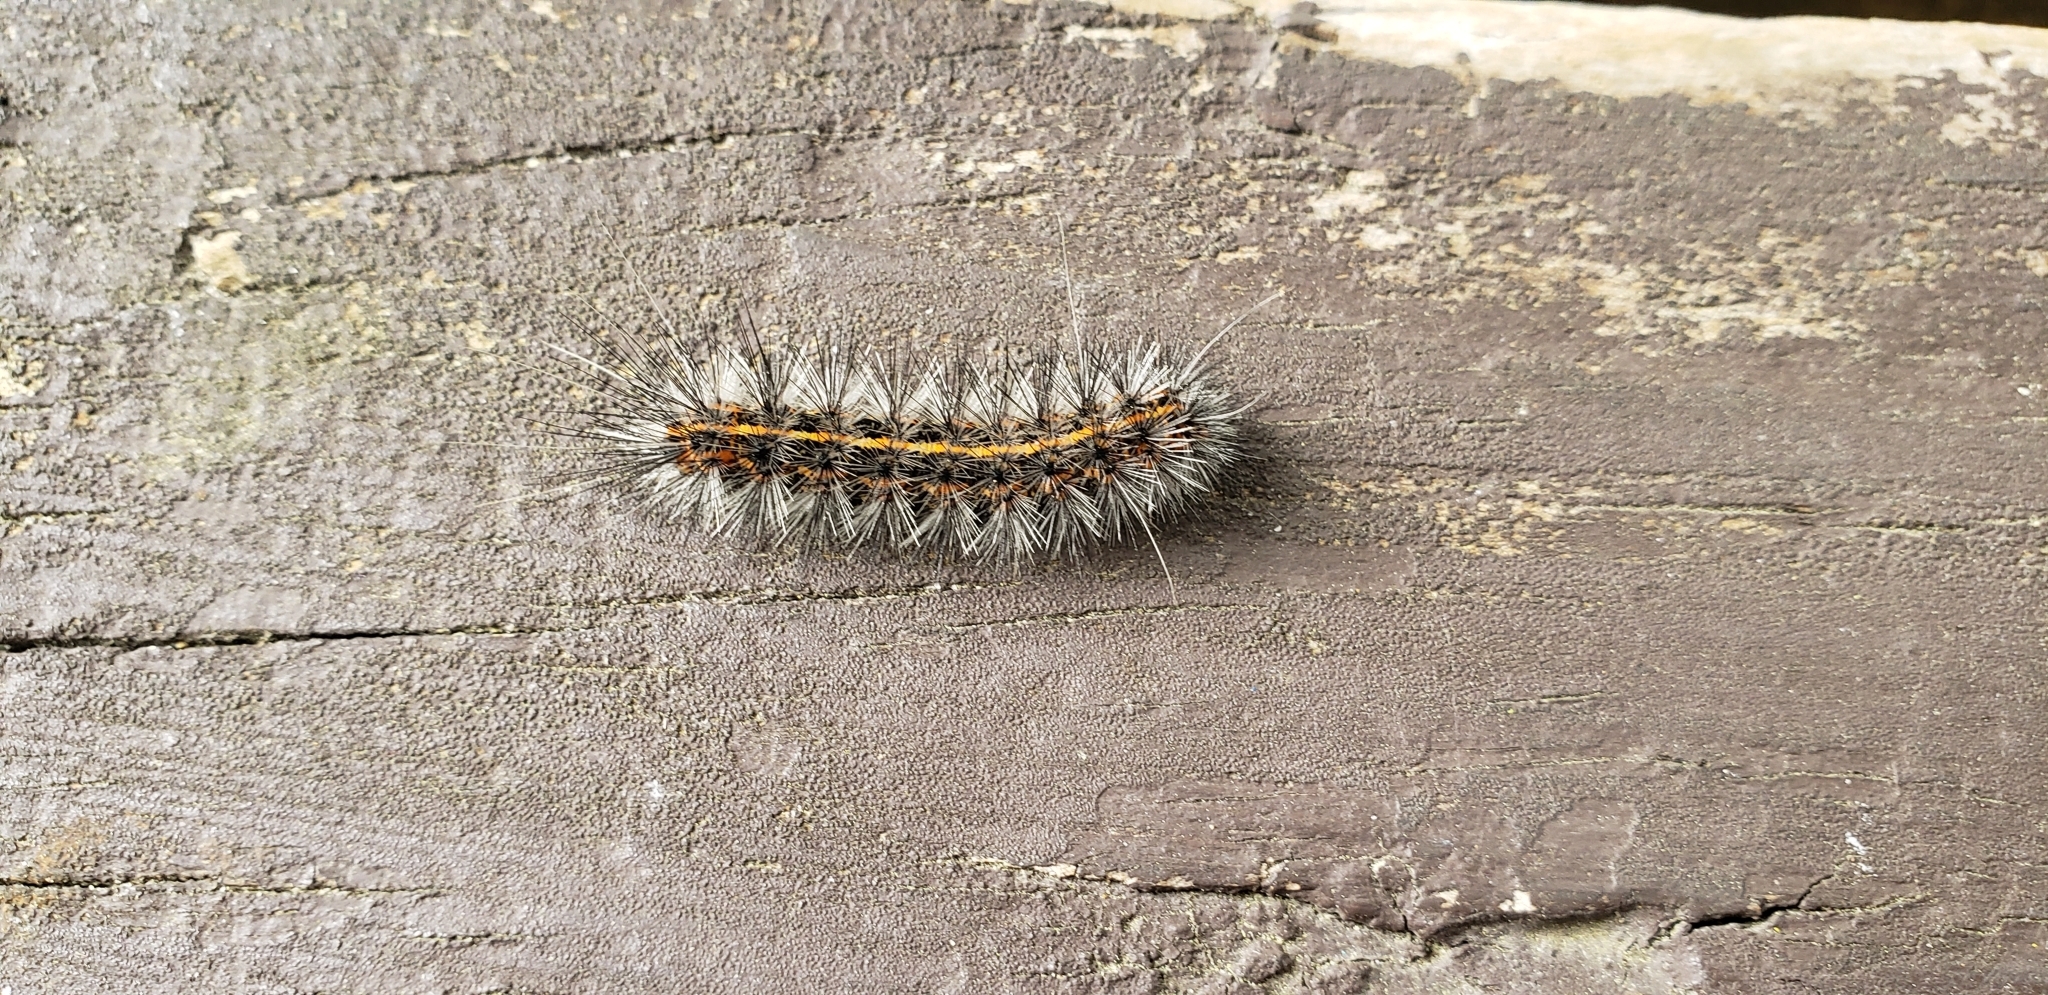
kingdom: Animalia
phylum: Arthropoda
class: Insecta
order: Lepidoptera
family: Erebidae
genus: Spilosoma
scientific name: Spilosoma dubia
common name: Dubious tiger moth
